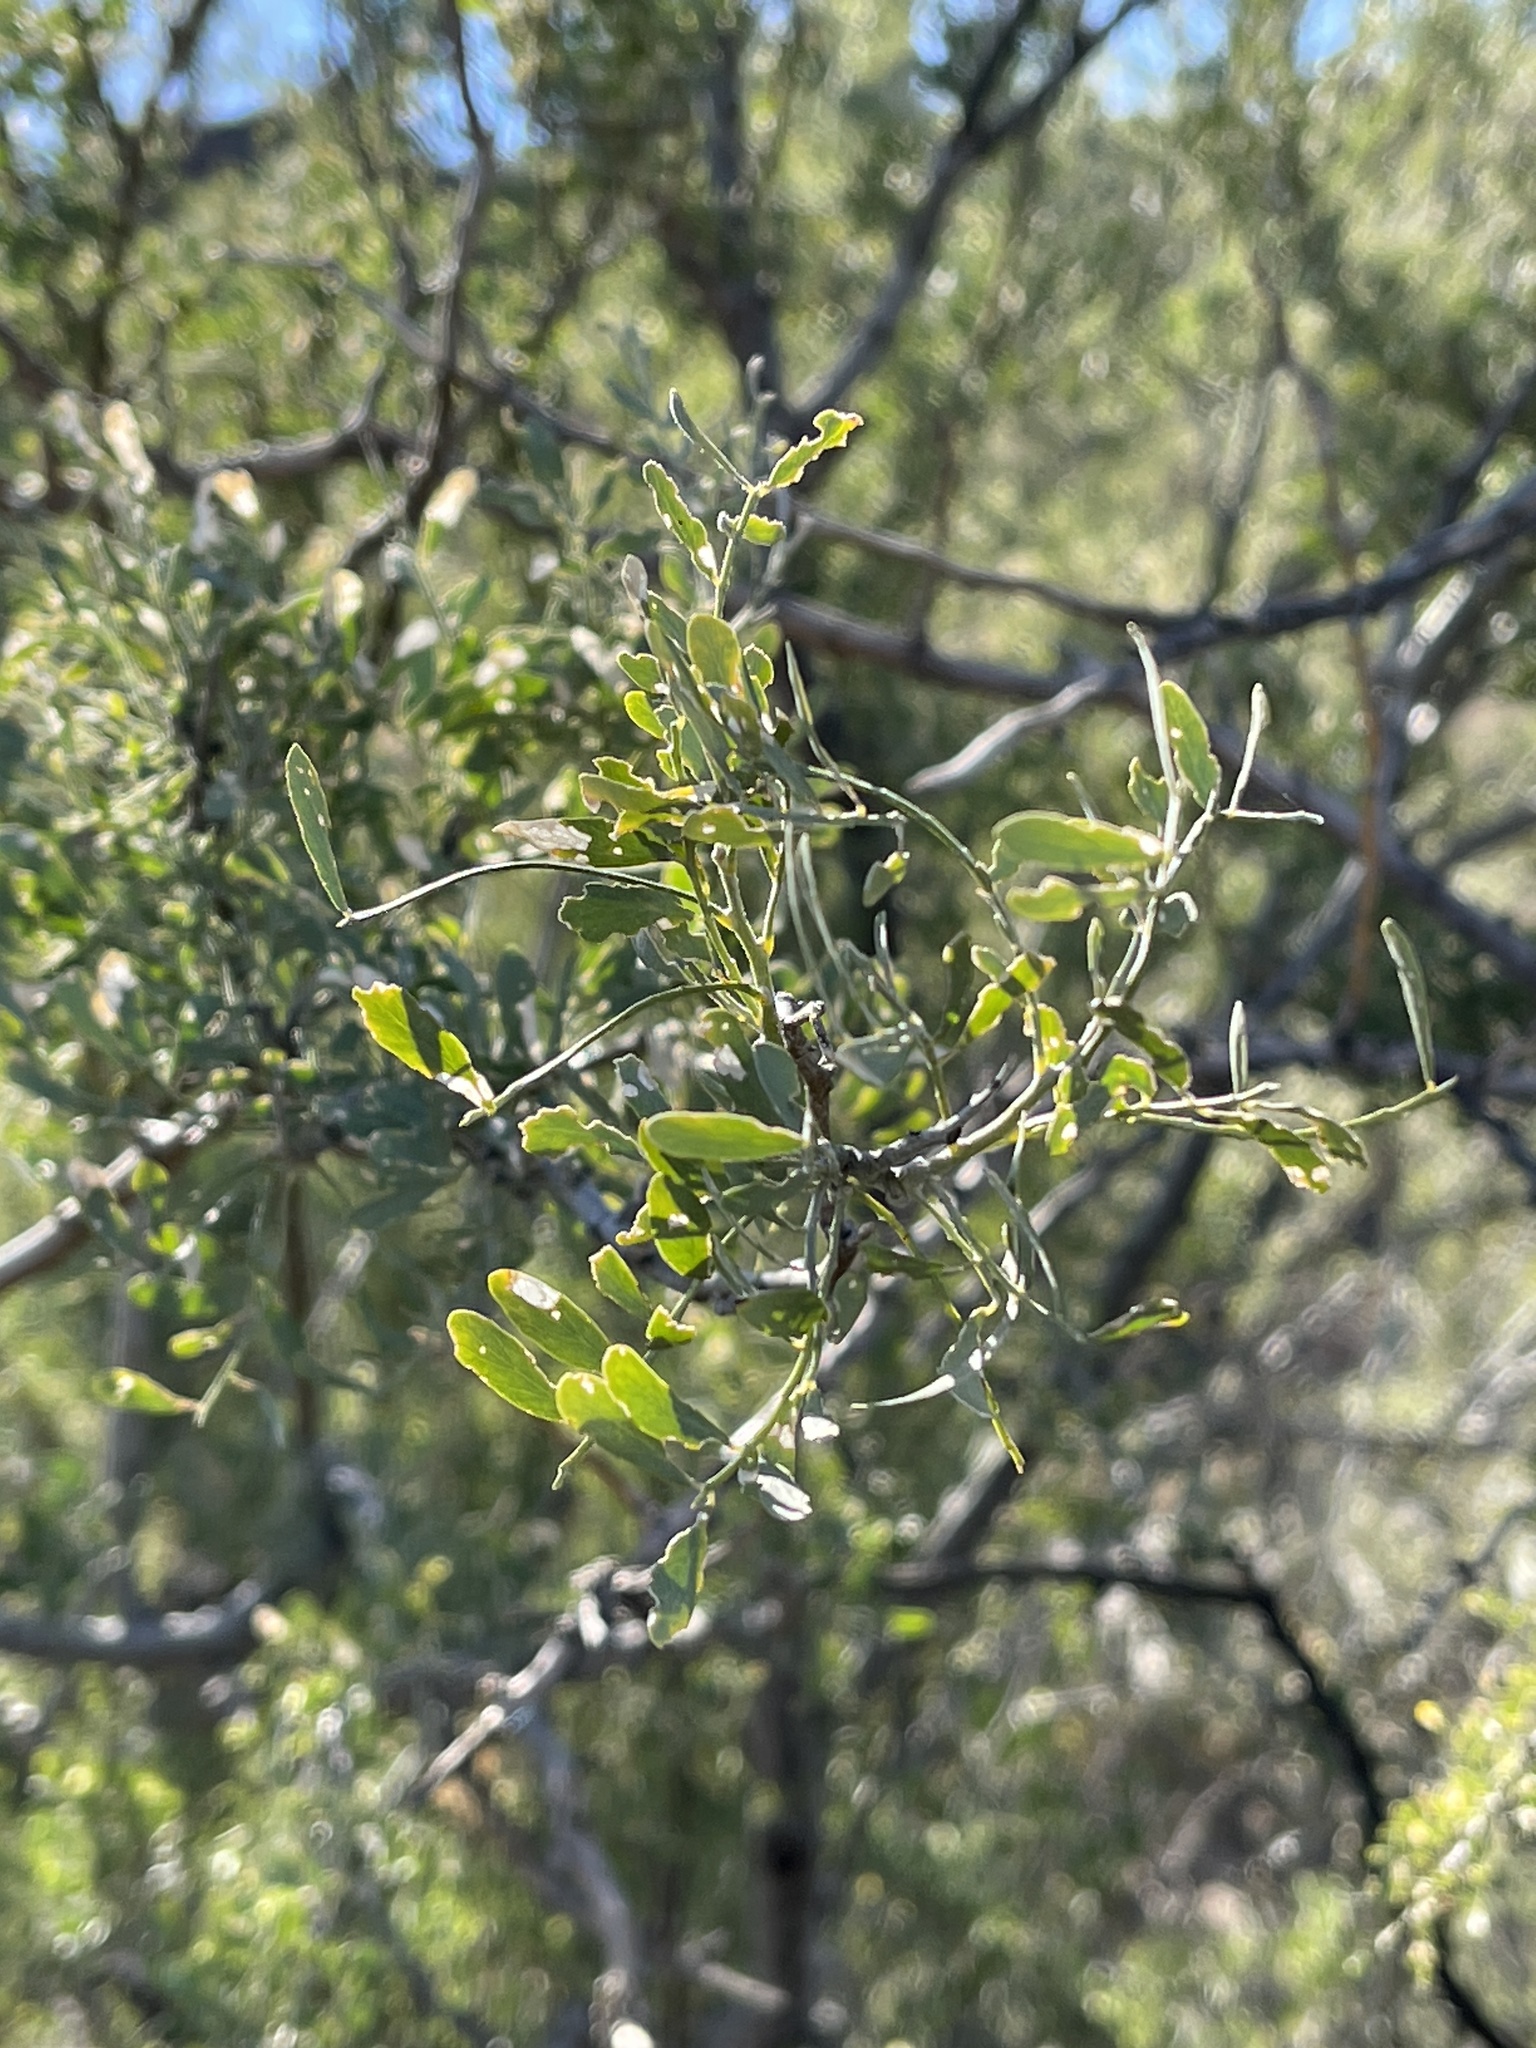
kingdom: Plantae
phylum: Tracheophyta
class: Magnoliopsida
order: Fabales
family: Fabaceae
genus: Olneya
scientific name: Olneya tesota
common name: Desert ironwood
